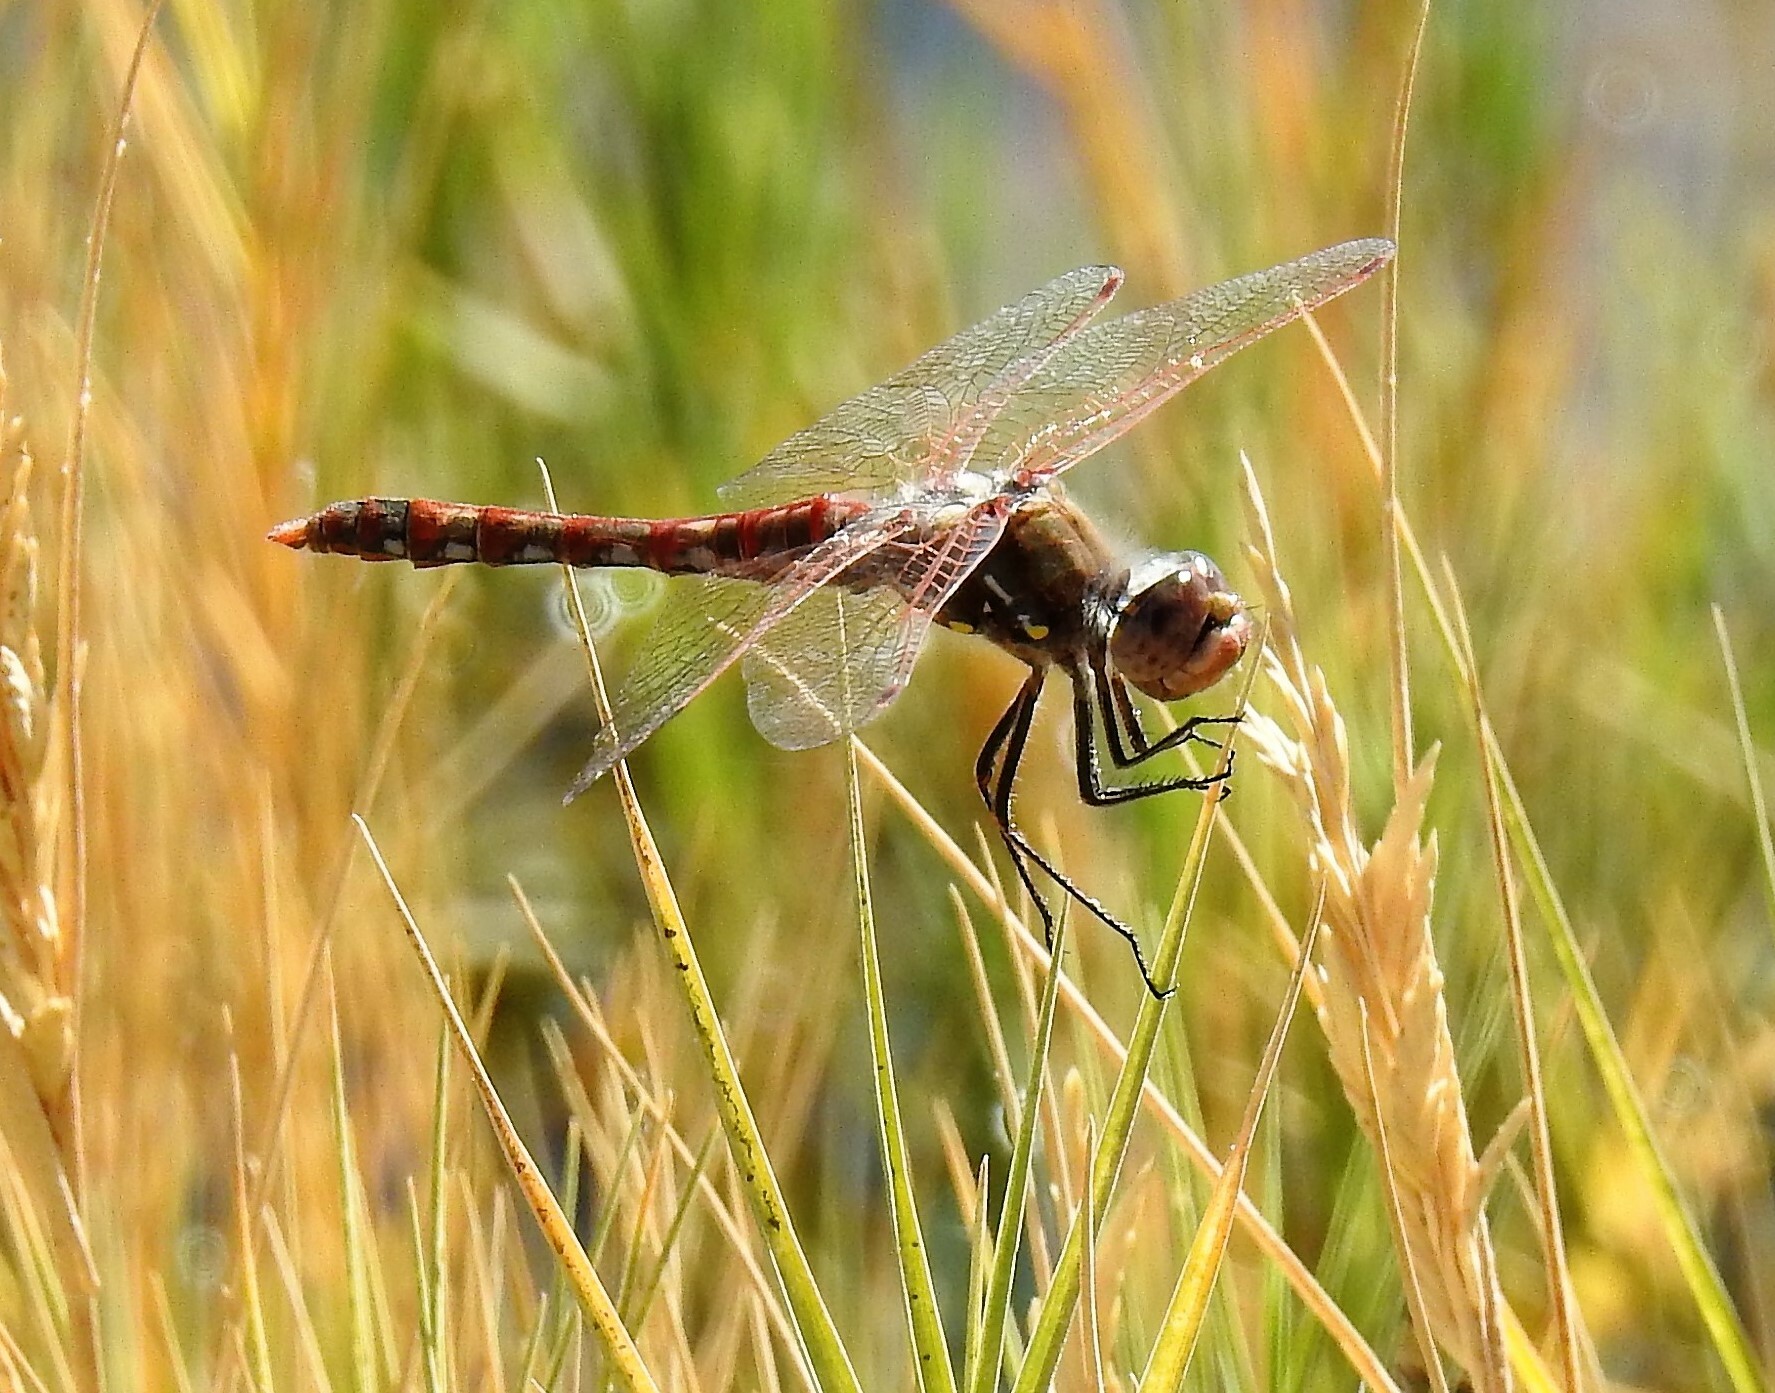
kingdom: Animalia
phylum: Arthropoda
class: Insecta
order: Odonata
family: Libellulidae
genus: Sympetrum
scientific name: Sympetrum corruptum
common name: Variegated meadowhawk
